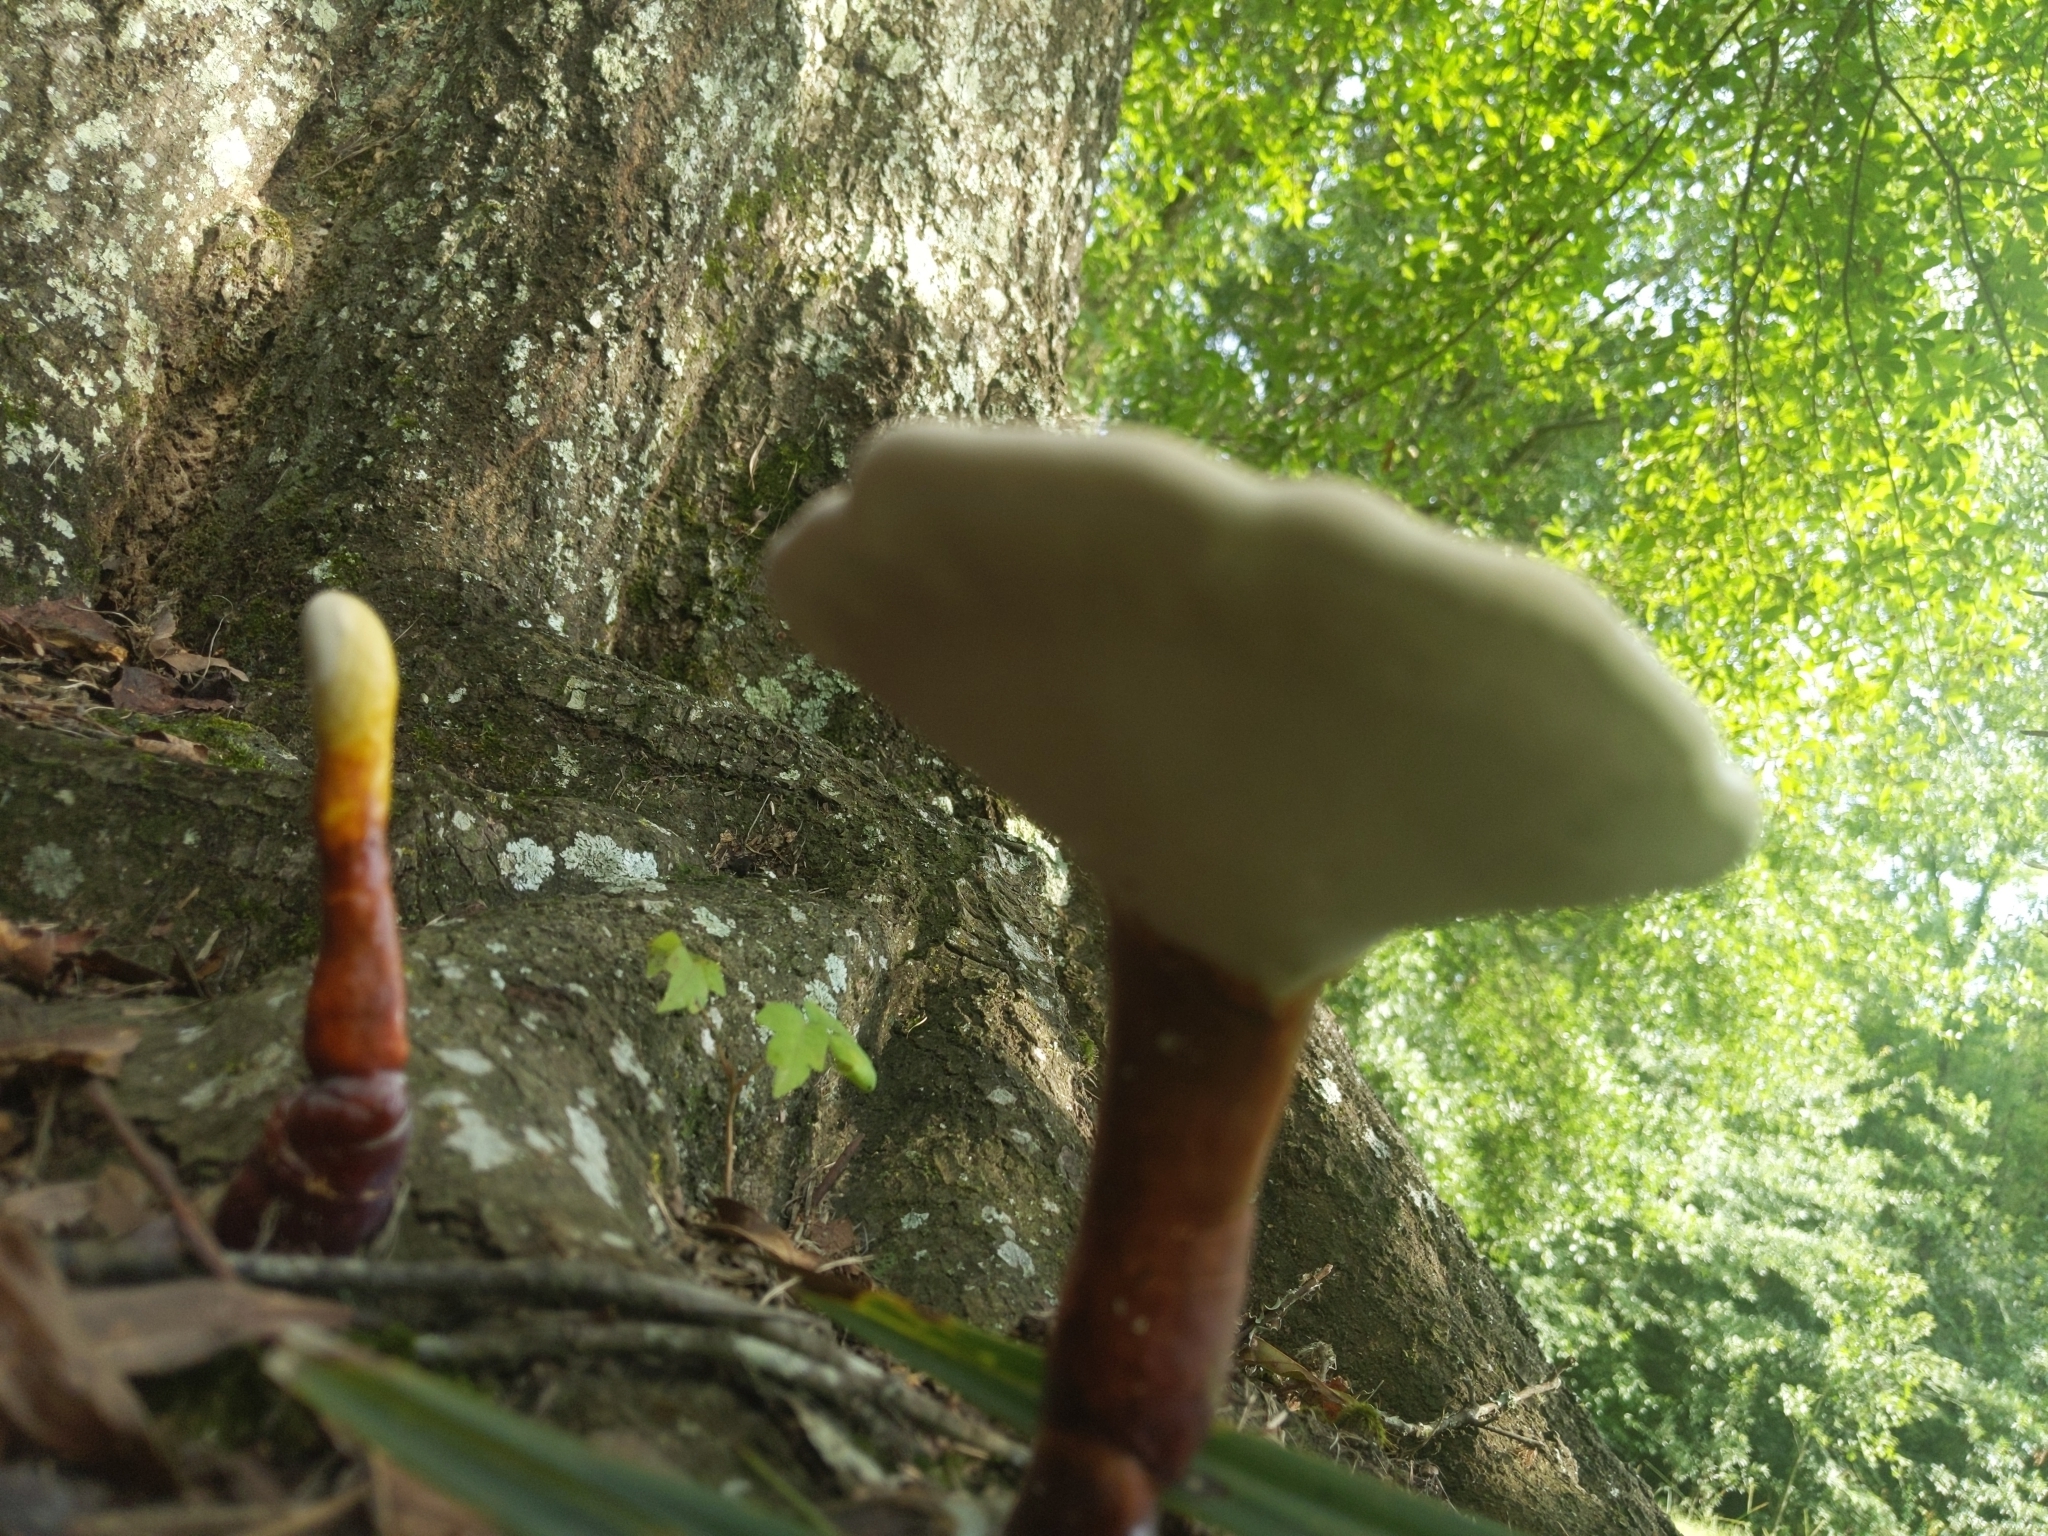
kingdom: Fungi
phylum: Basidiomycota
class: Agaricomycetes
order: Polyporales
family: Polyporaceae
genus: Ganoderma
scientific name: Ganoderma curtisii
